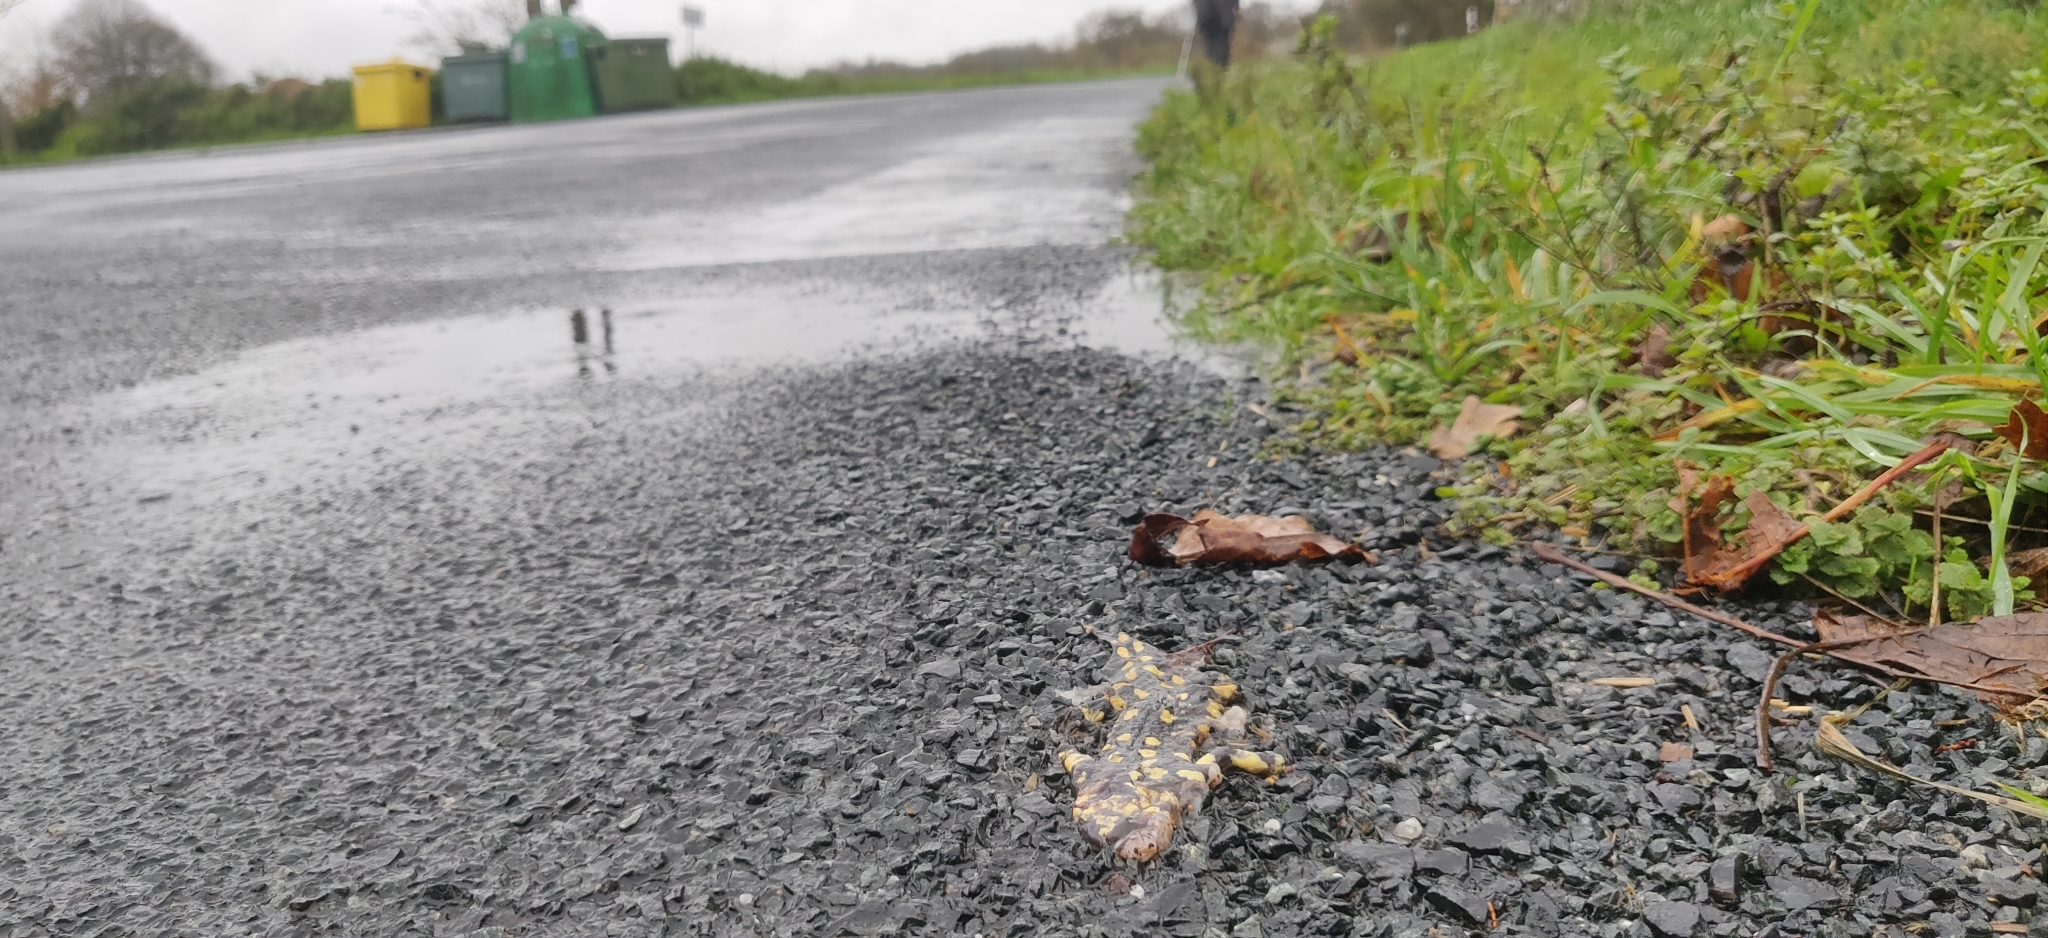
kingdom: Animalia
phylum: Chordata
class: Amphibia
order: Caudata
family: Salamandridae
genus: Salamandra
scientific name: Salamandra salamandra
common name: Fire salamander
